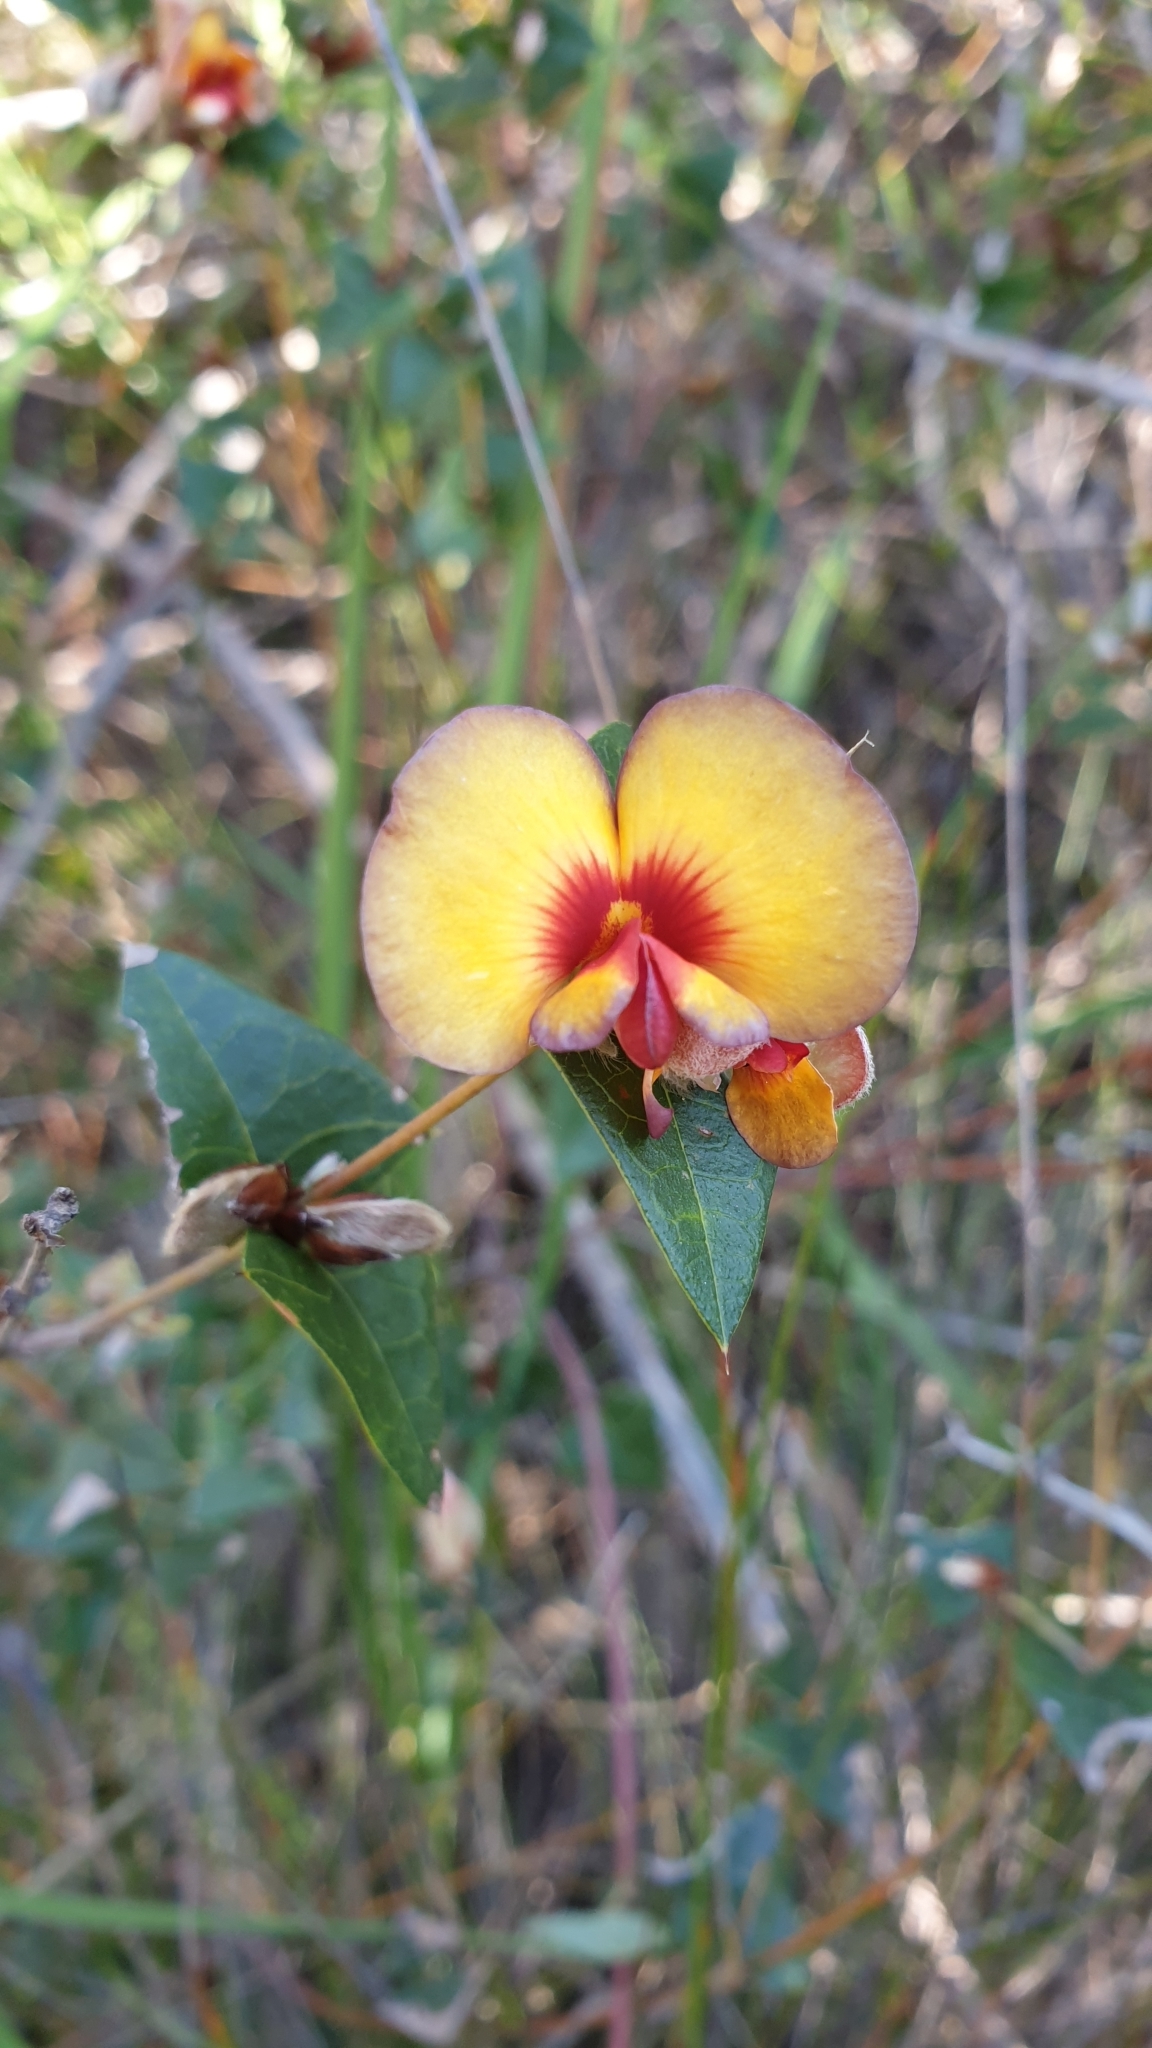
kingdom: Plantae
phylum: Tracheophyta
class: Magnoliopsida
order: Fabales
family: Fabaceae
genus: Platylobium
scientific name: Platylobium obtusangulum
